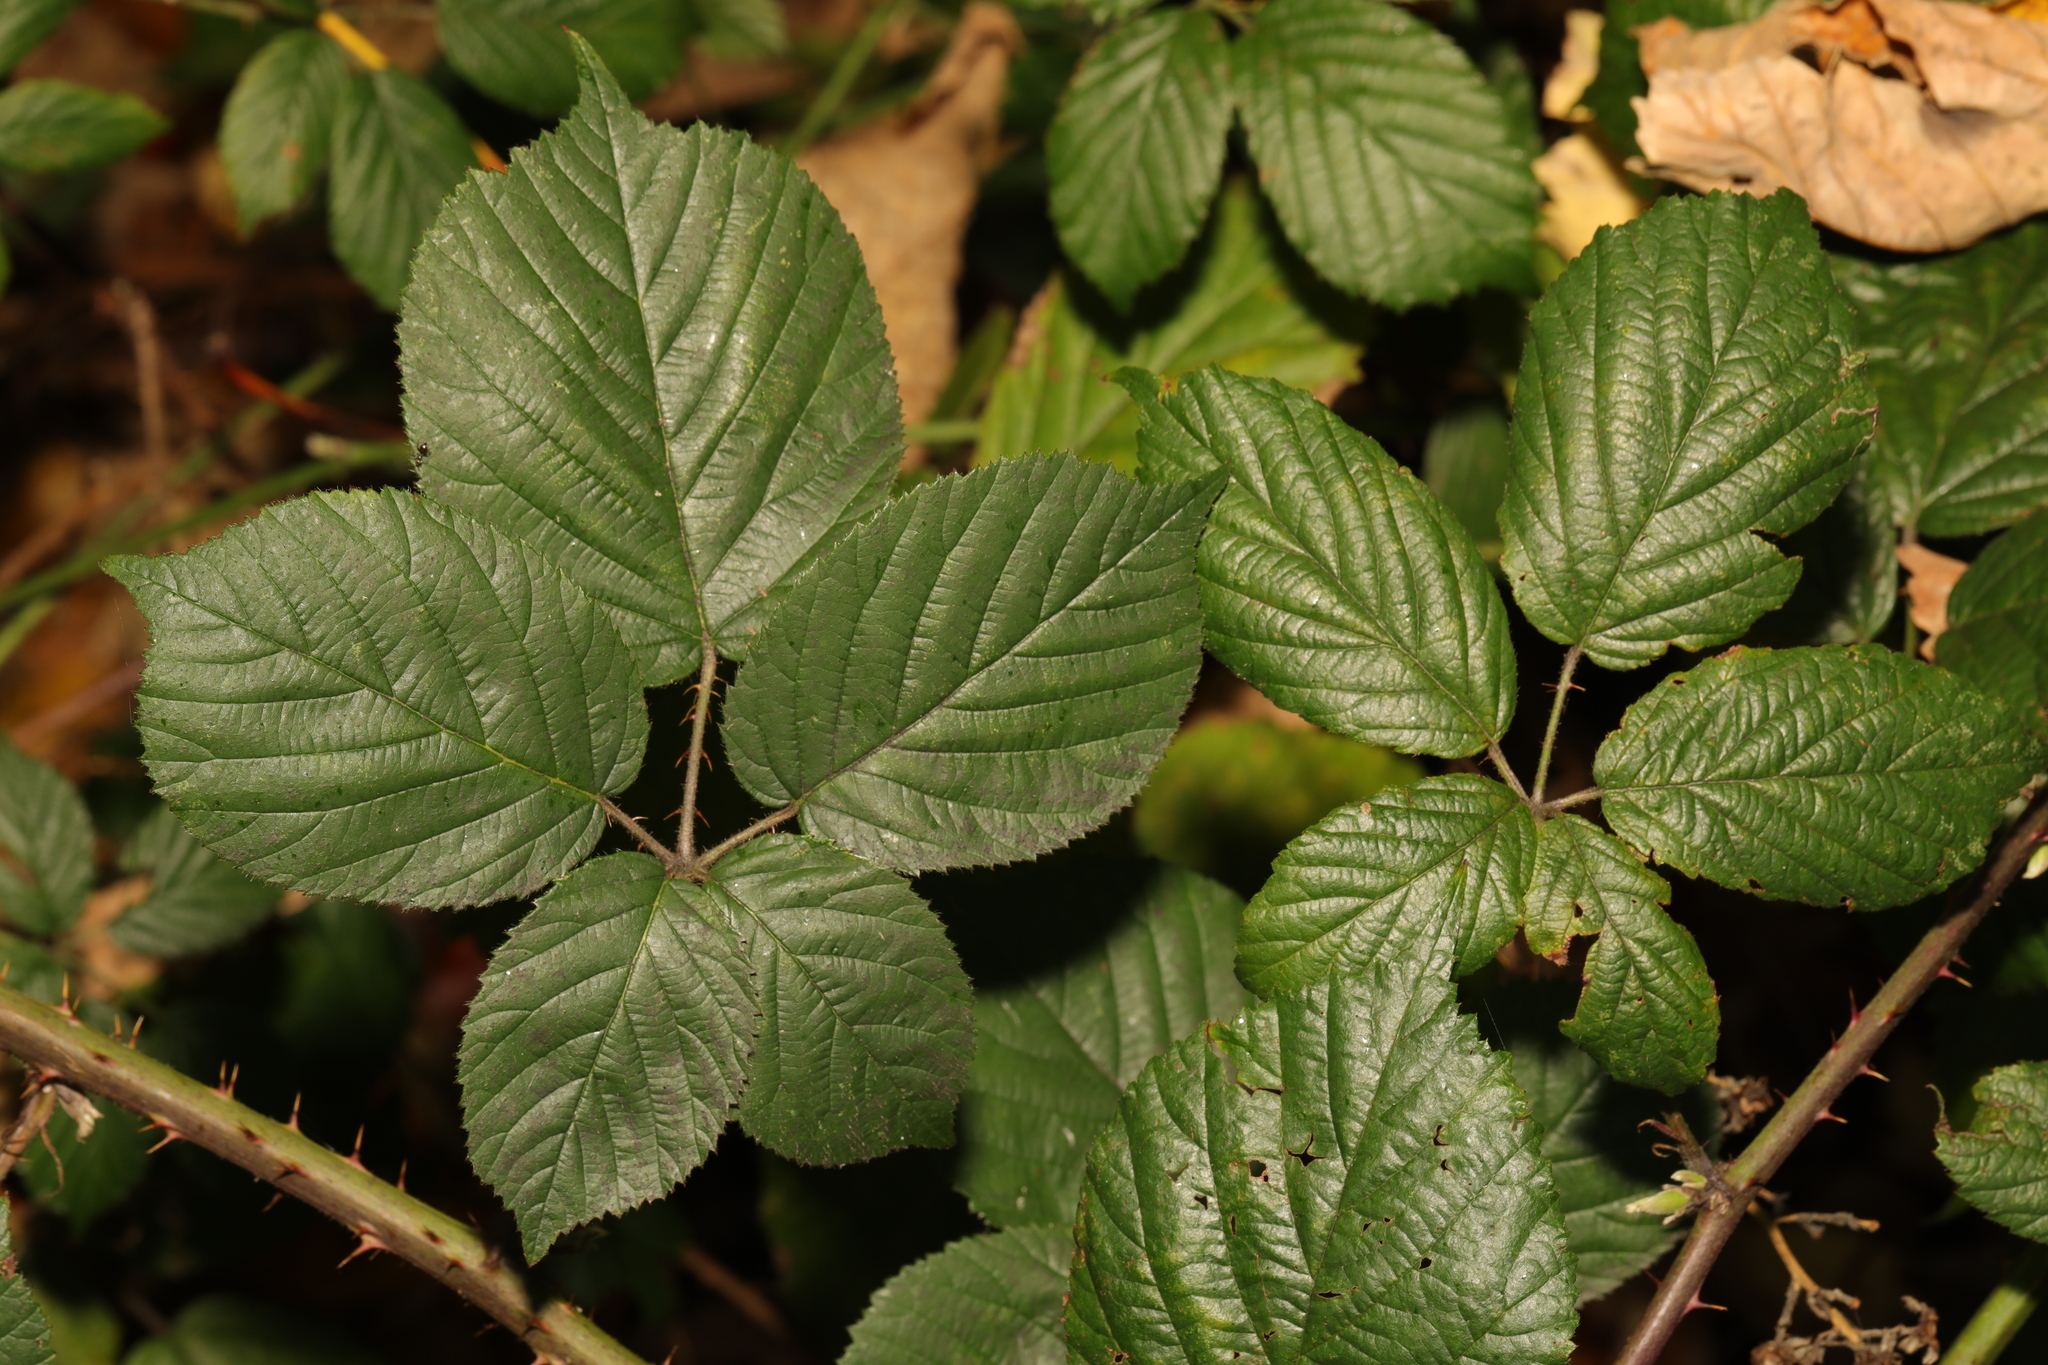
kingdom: Plantae
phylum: Tracheophyta
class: Magnoliopsida
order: Rosales
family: Rosaceae
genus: Rubus
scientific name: Rubus wirralensis
